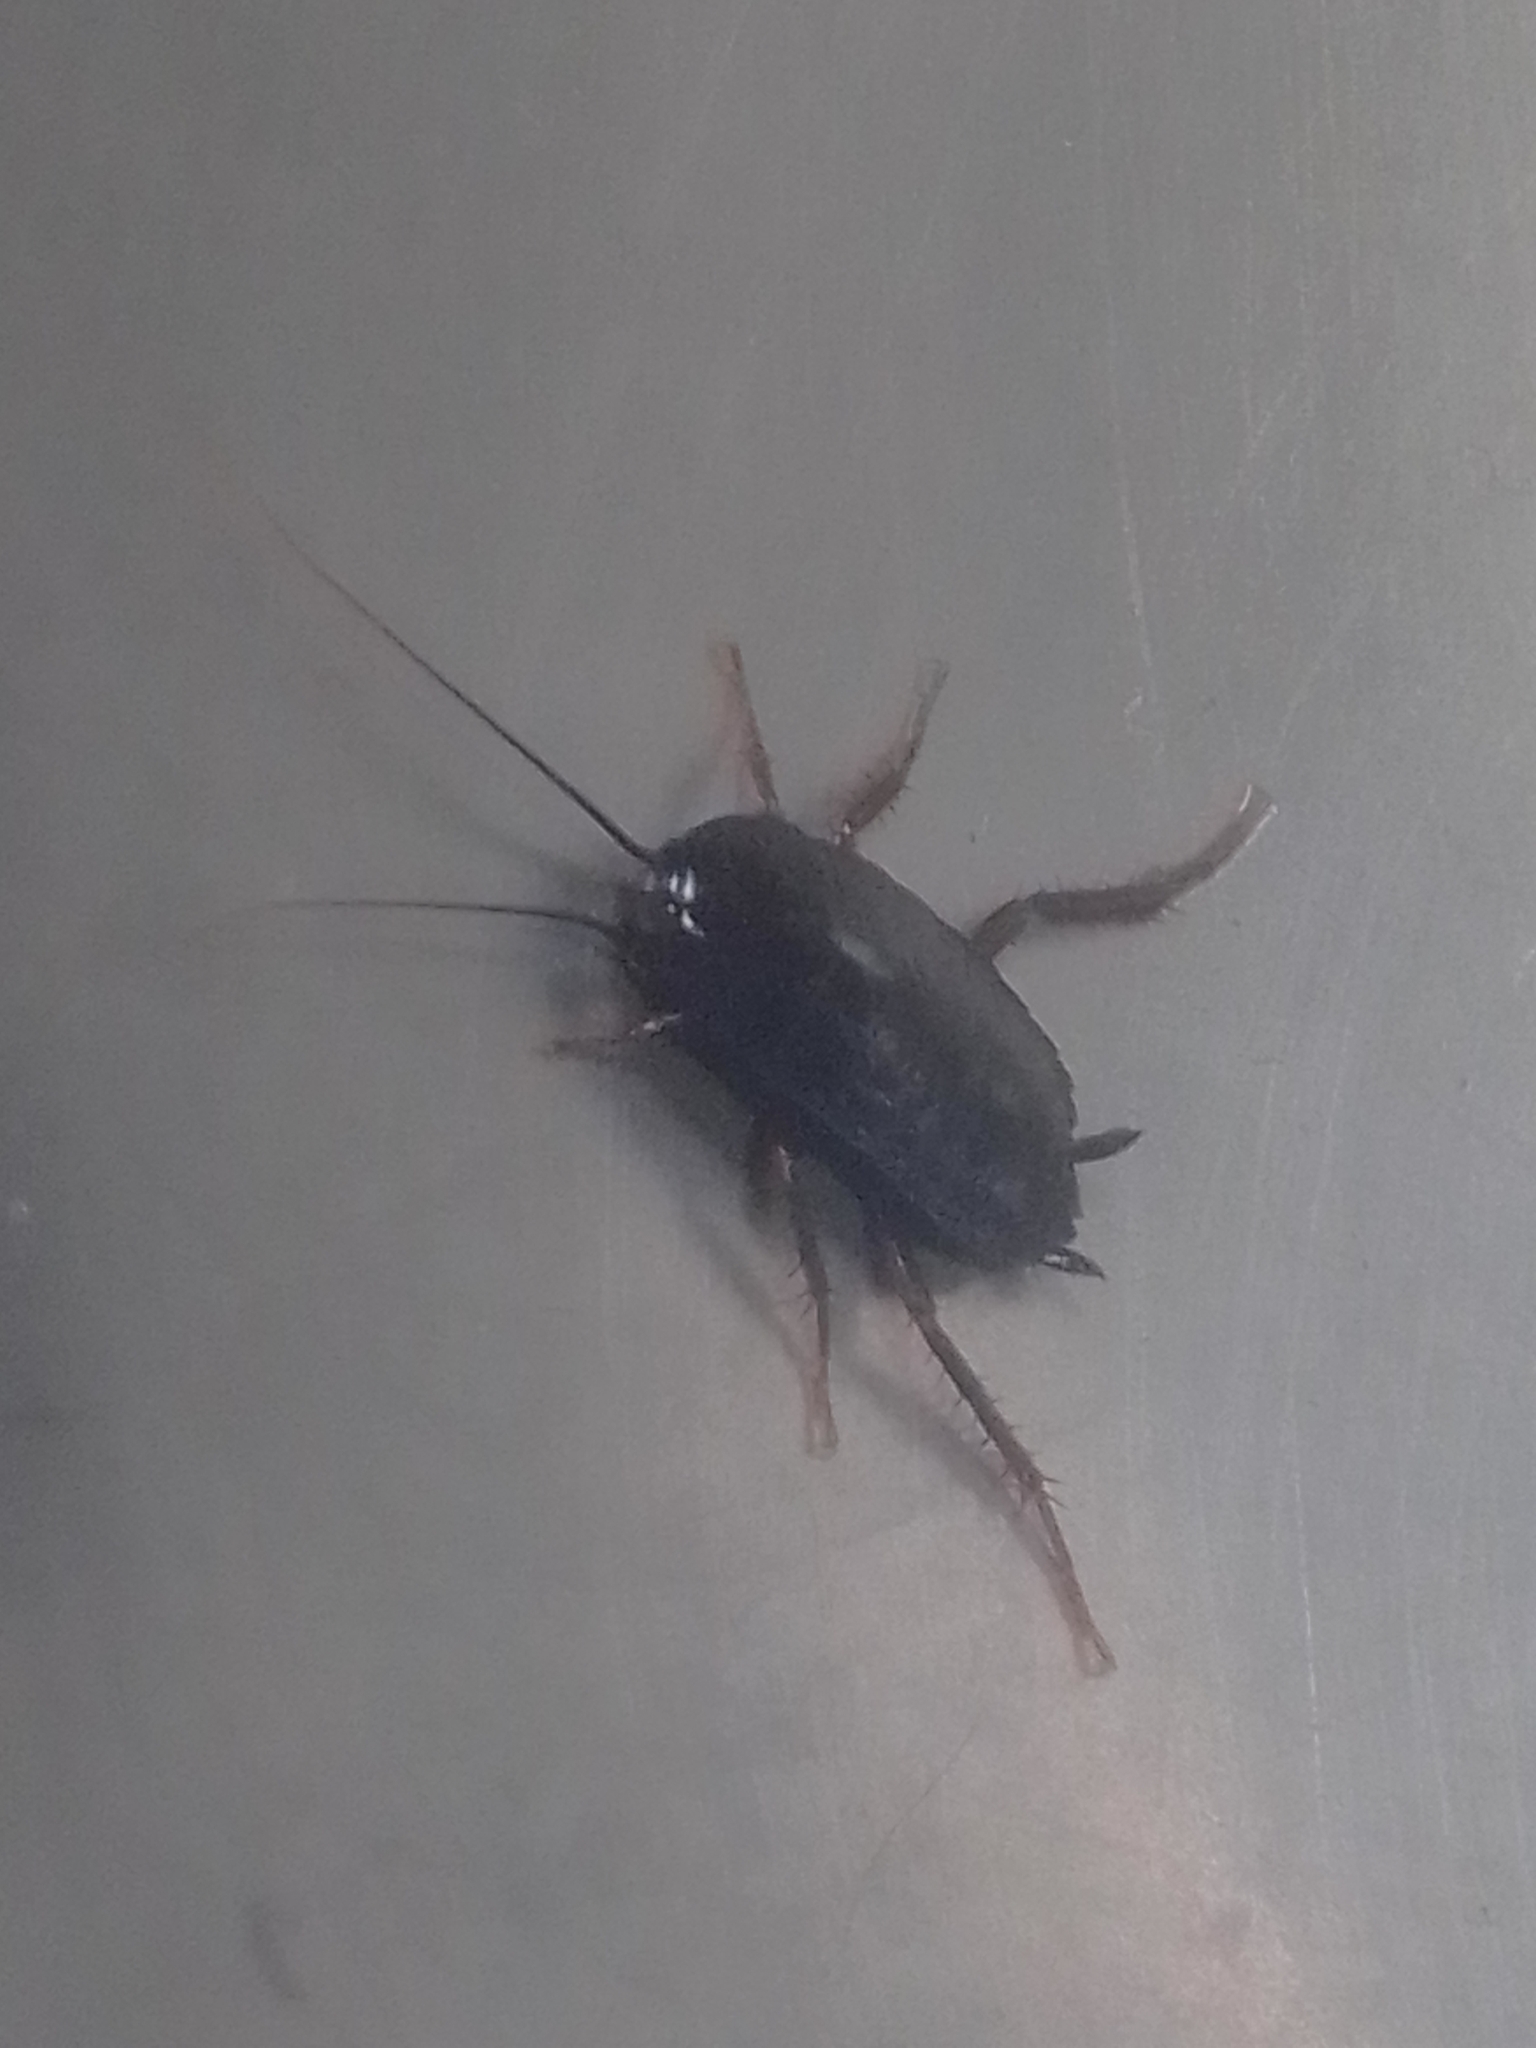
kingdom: Animalia
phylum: Arthropoda
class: Insecta
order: Blattodea
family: Blattidae
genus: Blatta
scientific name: Blatta orientalis
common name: Oriental cockroach
